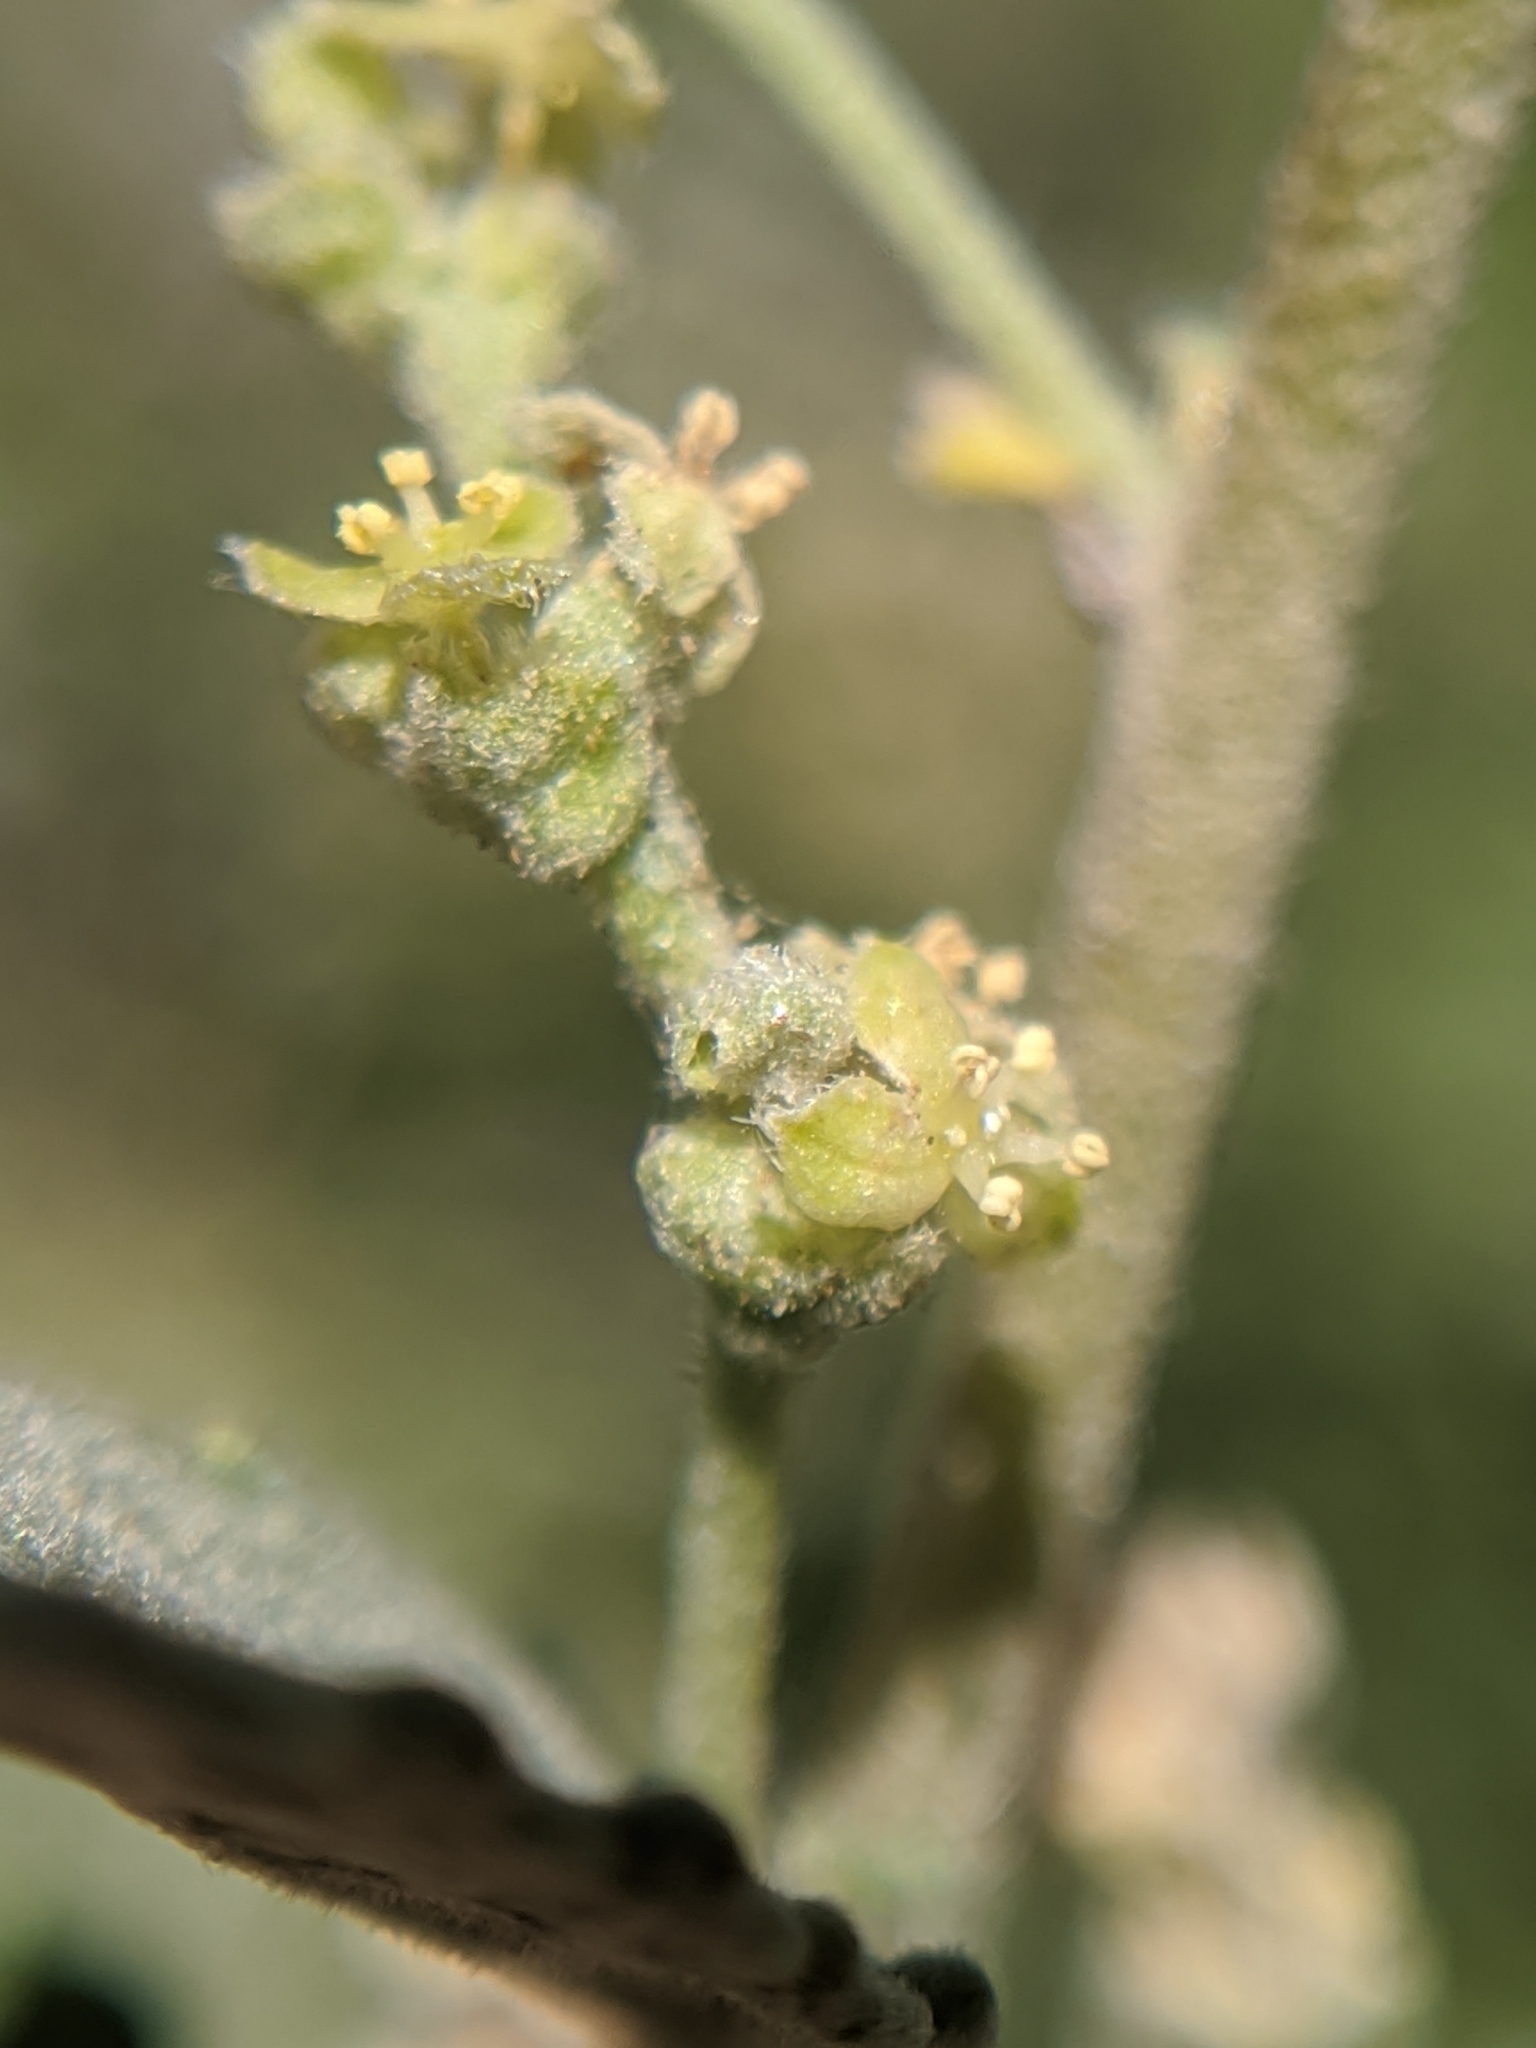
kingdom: Plantae
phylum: Tracheophyta
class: Magnoliopsida
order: Malpighiales
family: Euphorbiaceae
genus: Bernardia
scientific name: Bernardia incana
